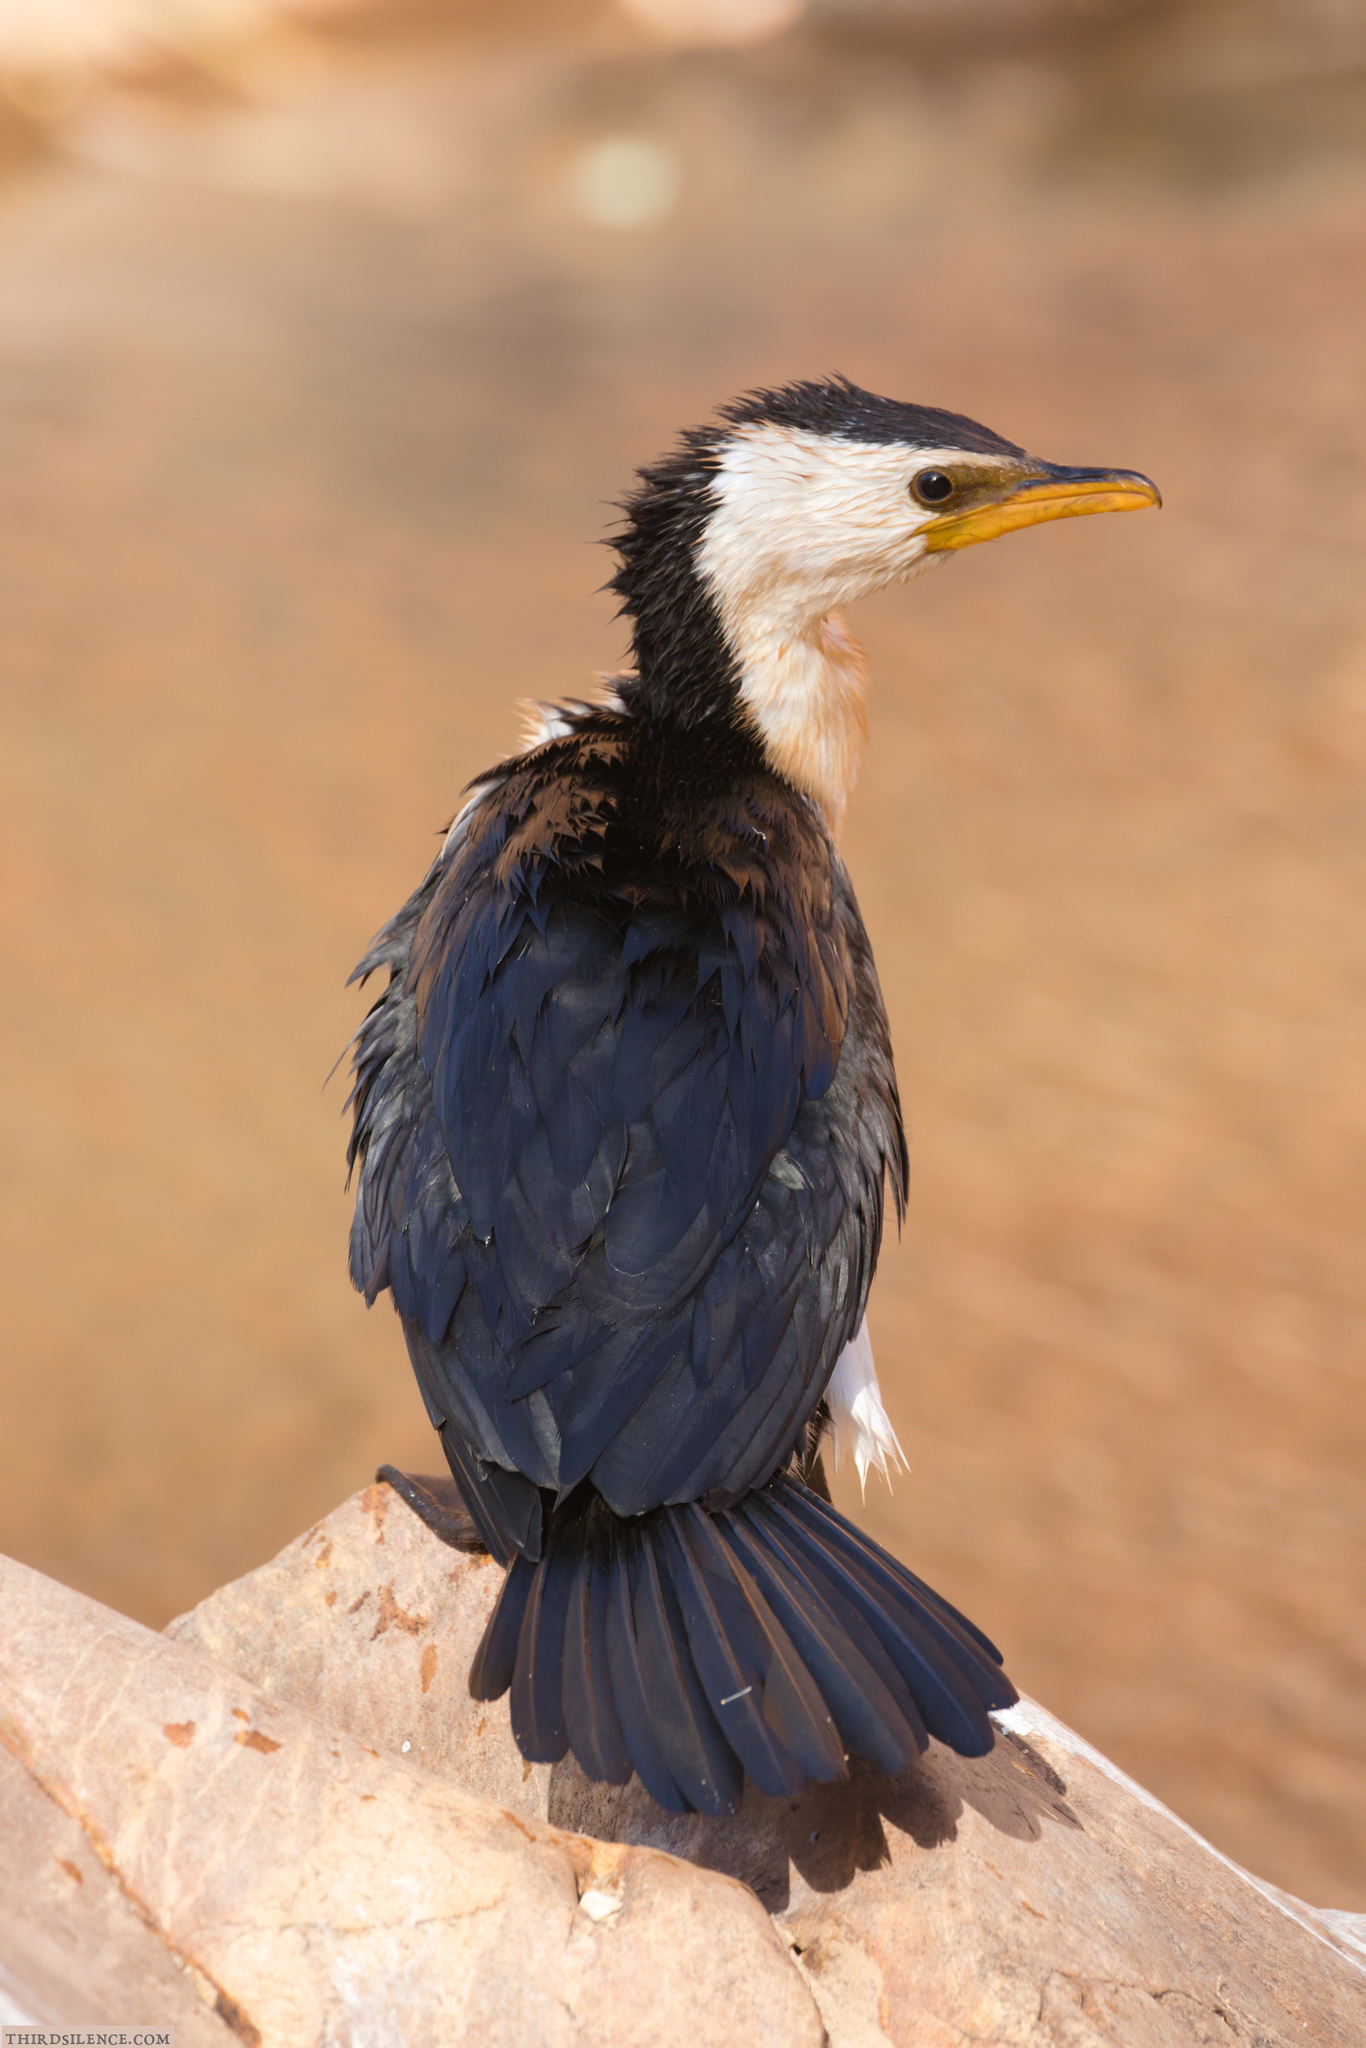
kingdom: Animalia
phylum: Chordata
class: Aves
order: Suliformes
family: Phalacrocoracidae
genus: Microcarbo
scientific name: Microcarbo melanoleucos
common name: Little pied cormorant
